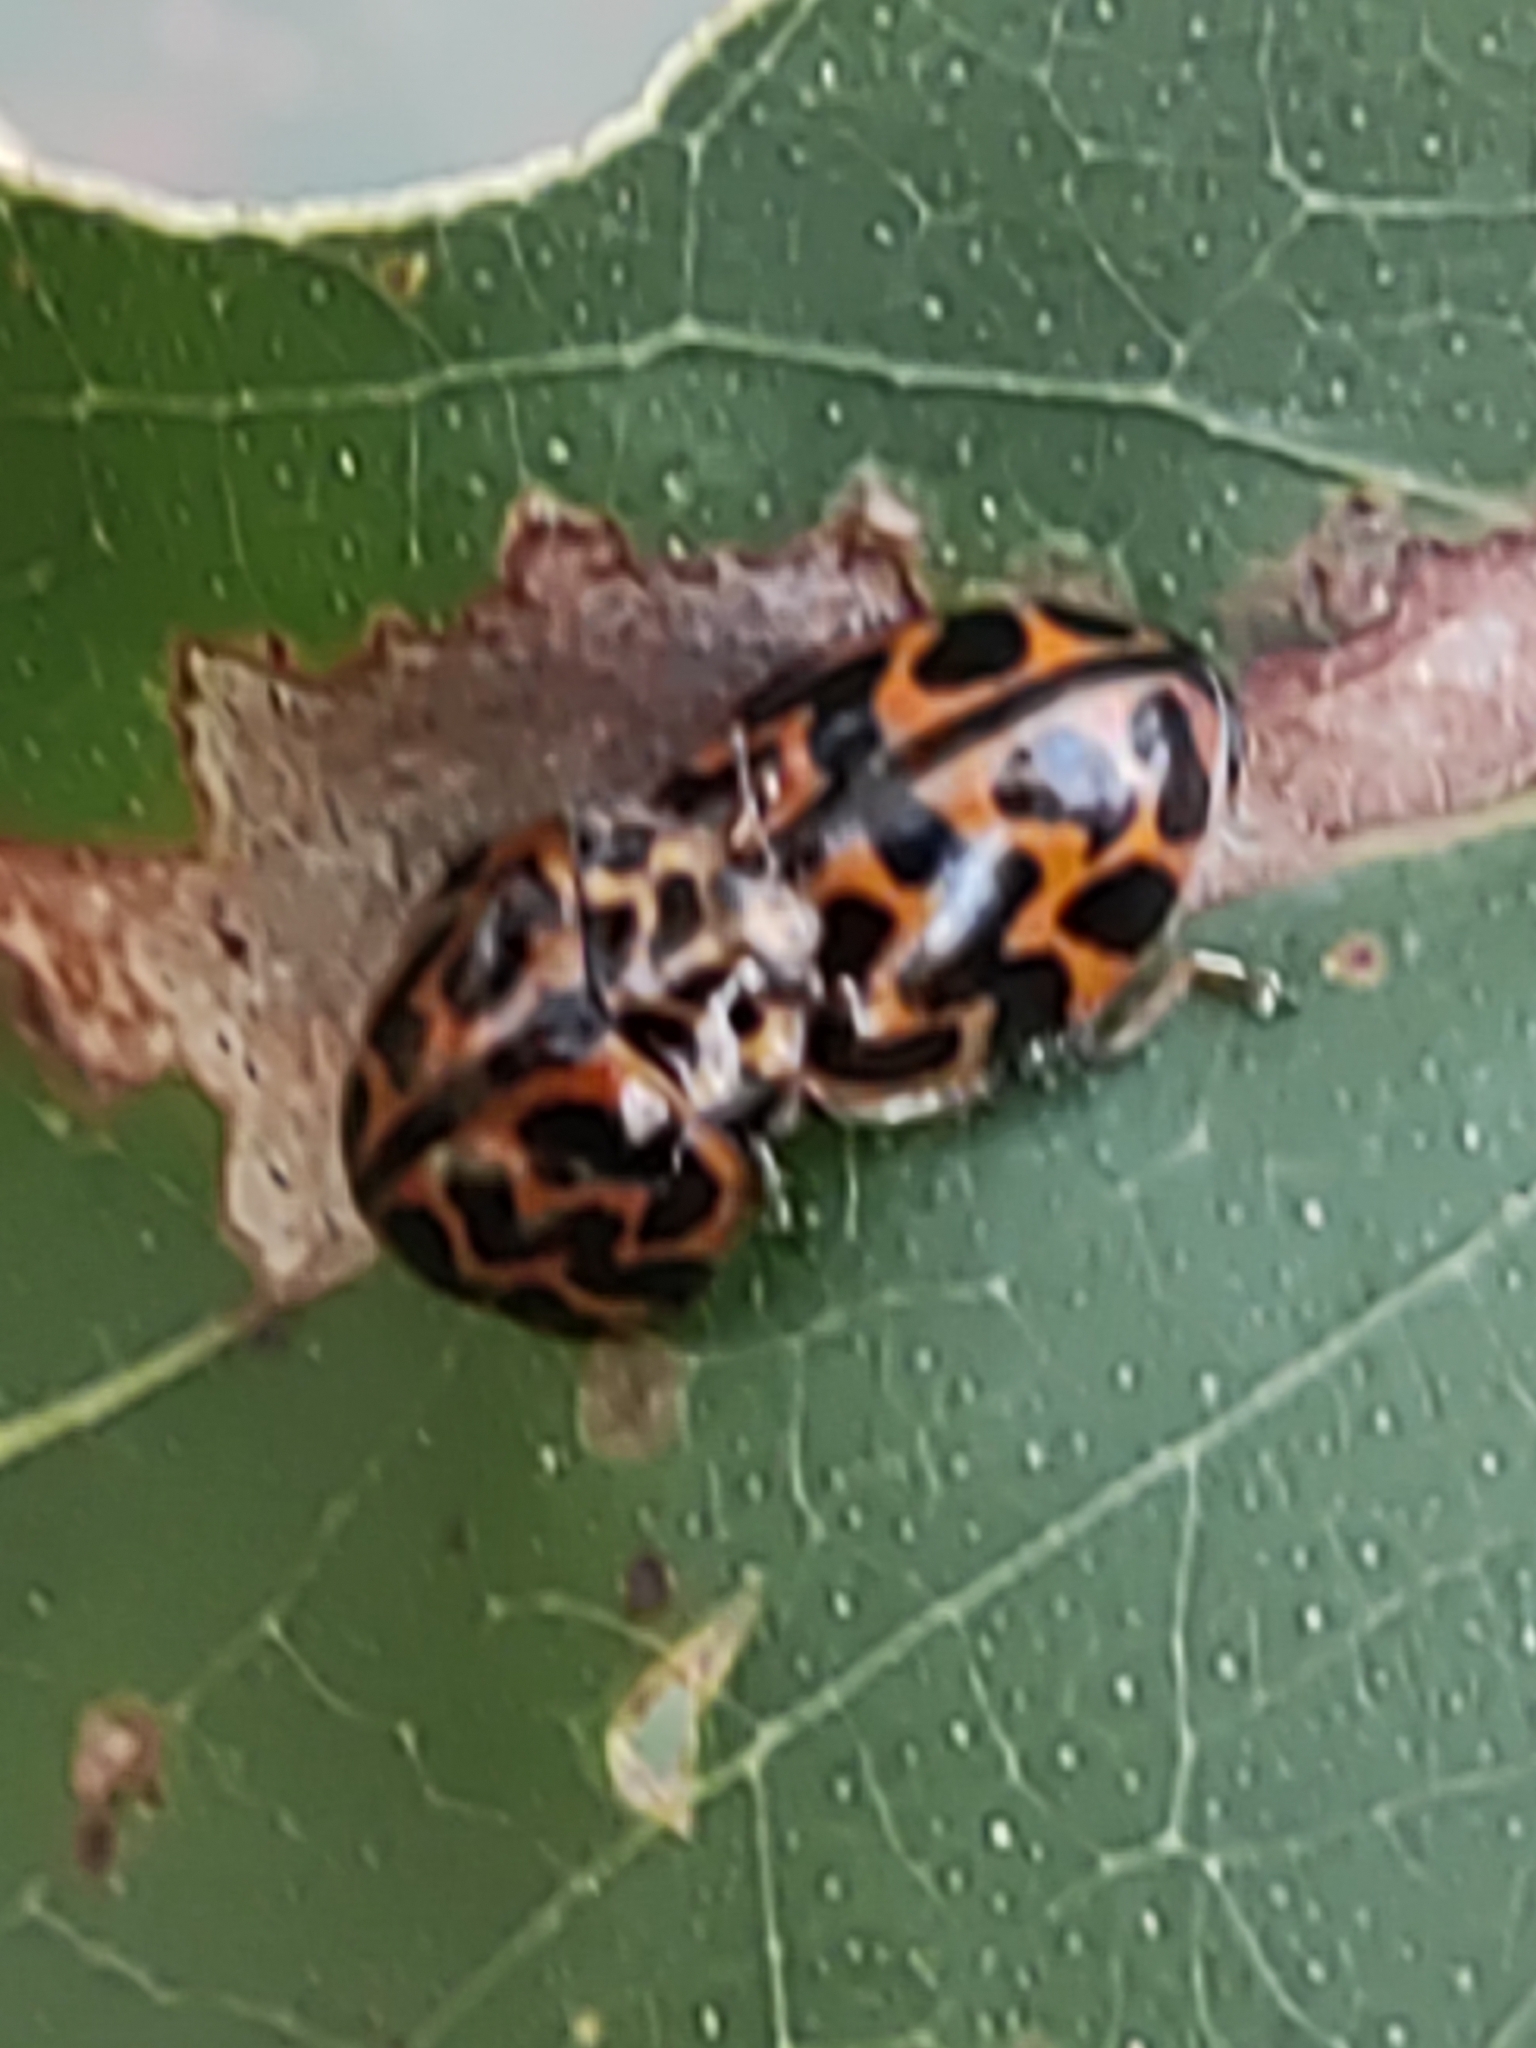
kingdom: Animalia
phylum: Arthropoda
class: Insecta
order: Coleoptera
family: Coccinellidae
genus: Cleobora
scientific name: Cleobora
